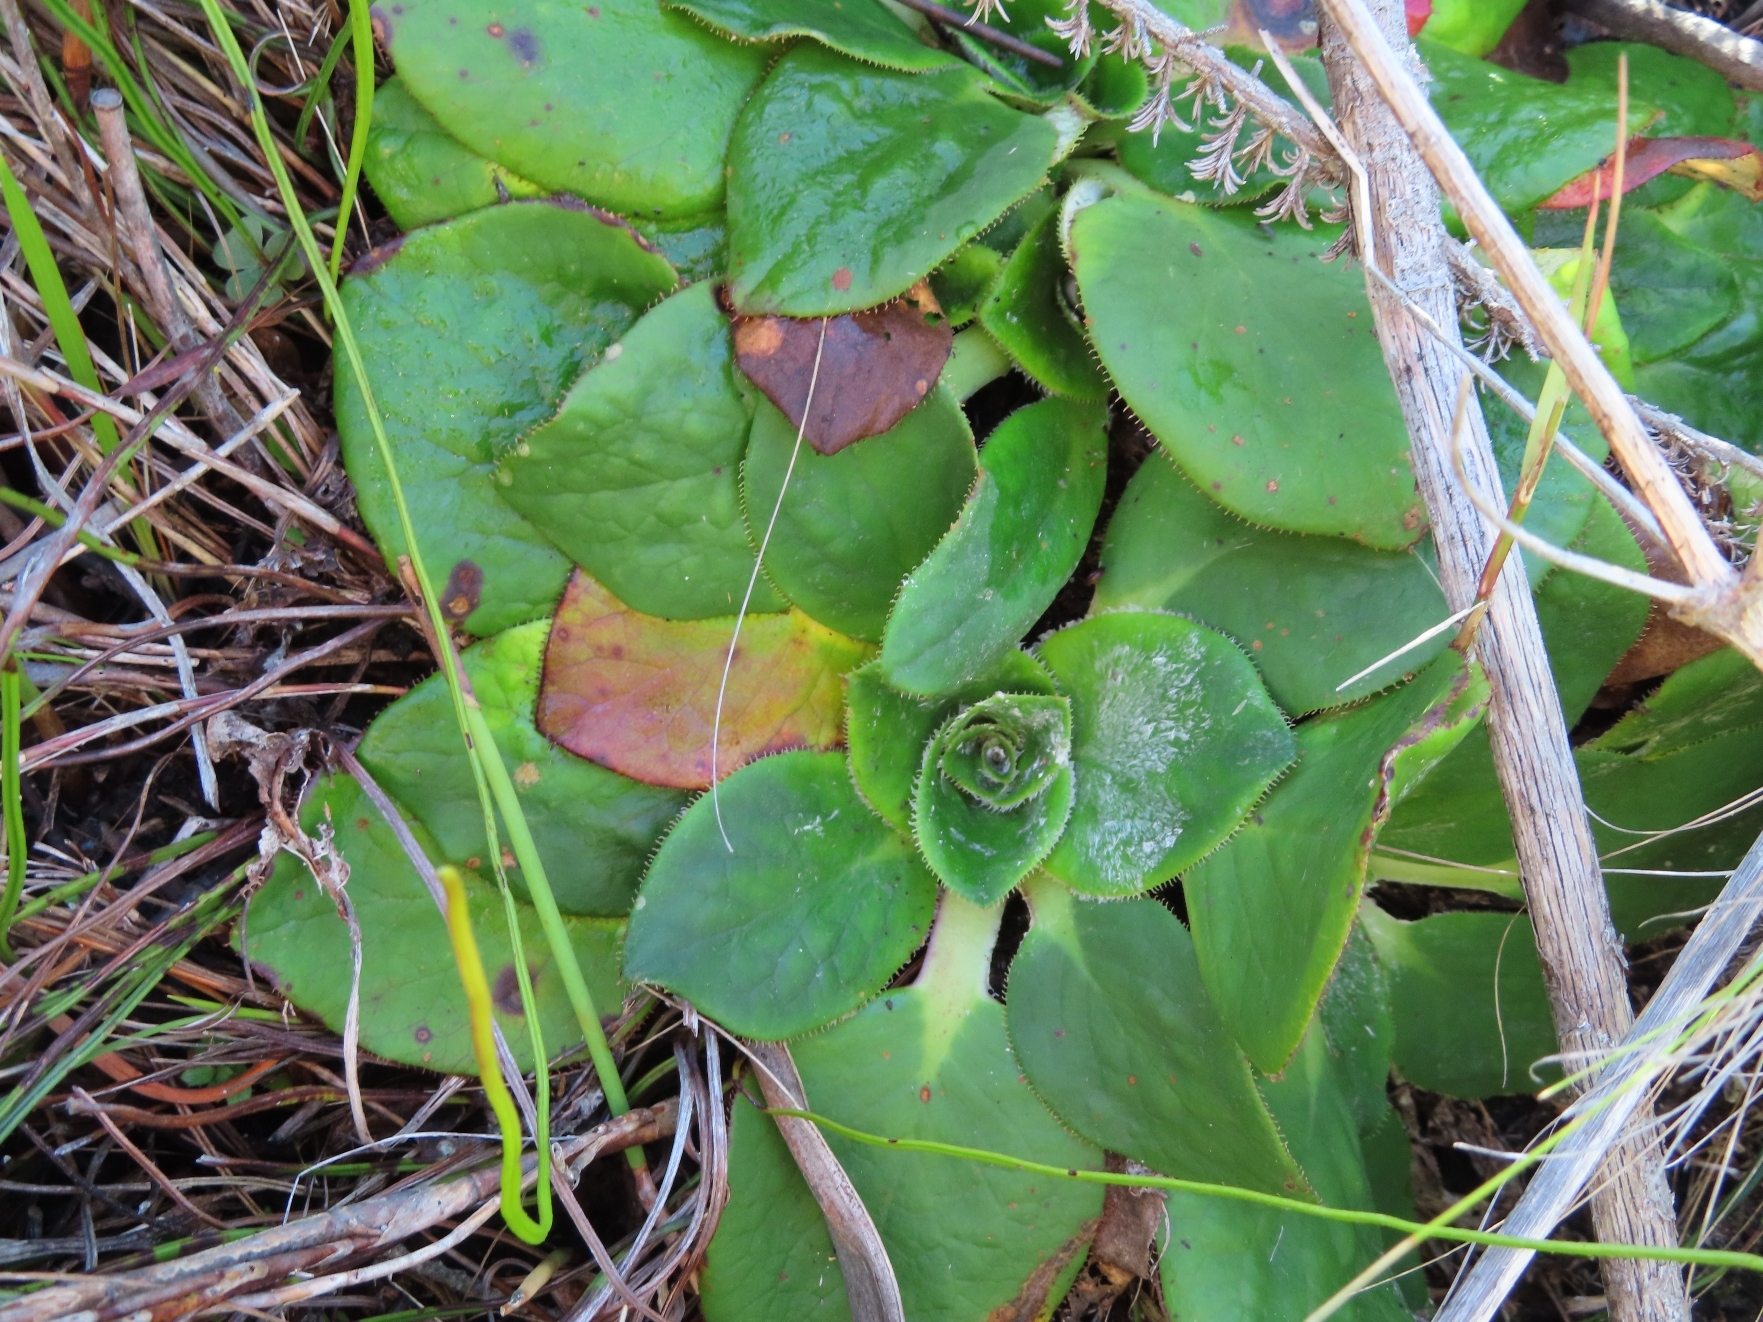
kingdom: Plantae
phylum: Tracheophyta
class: Magnoliopsida
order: Apiales
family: Apiaceae
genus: Hermas
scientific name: Hermas ciliata
